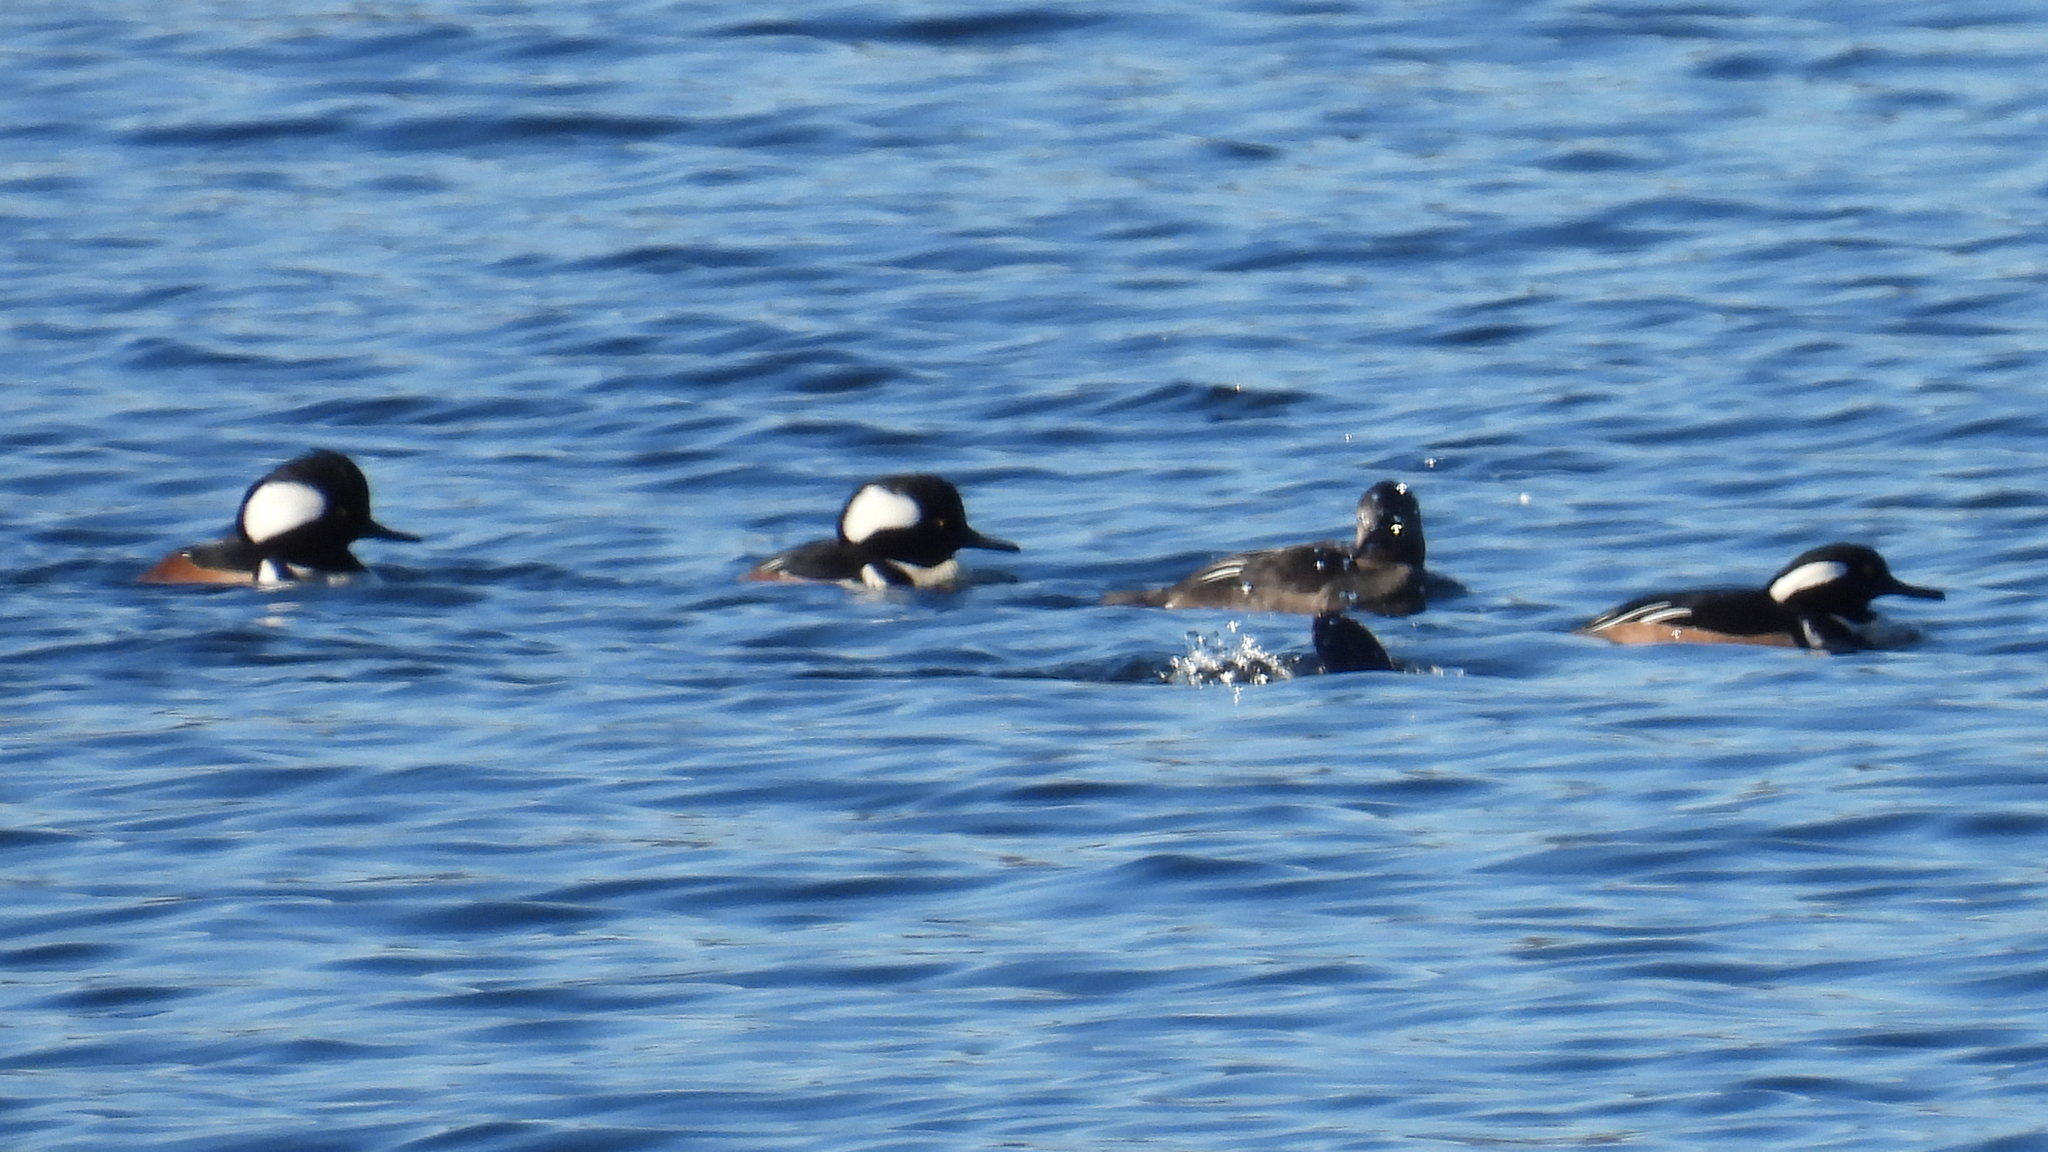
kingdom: Animalia
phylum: Chordata
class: Aves
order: Anseriformes
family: Anatidae
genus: Lophodytes
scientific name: Lophodytes cucullatus
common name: Hooded merganser
